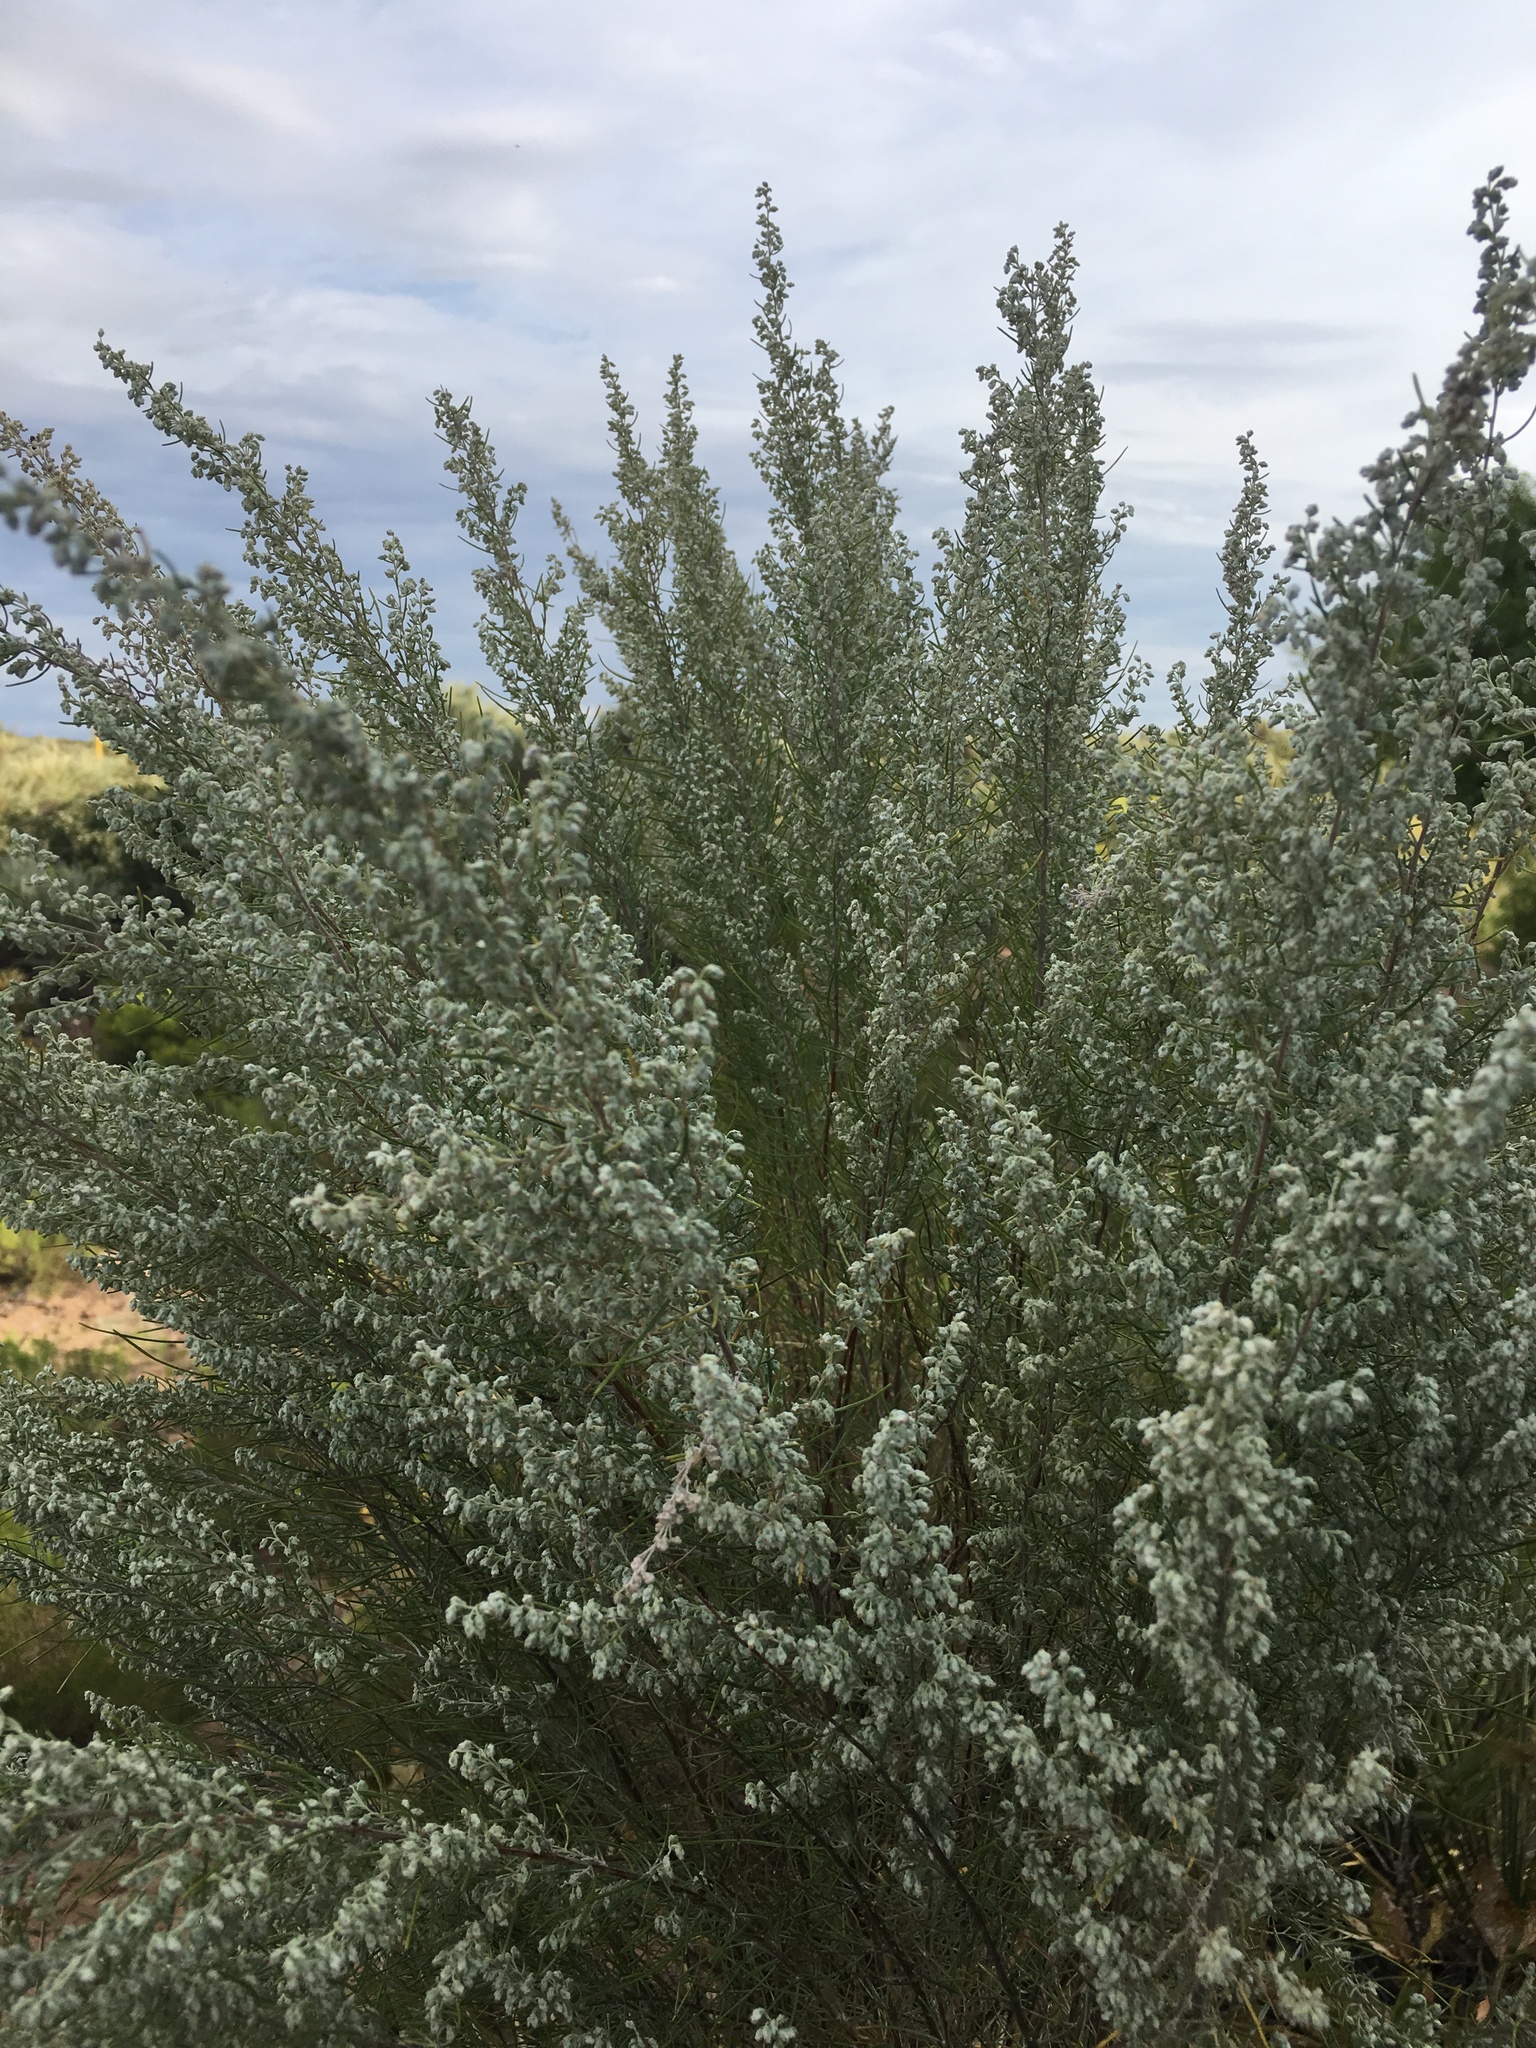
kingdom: Plantae
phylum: Tracheophyta
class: Magnoliopsida
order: Asterales
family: Asteraceae
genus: Artemisia
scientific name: Artemisia filifolia
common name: Sand-sage
